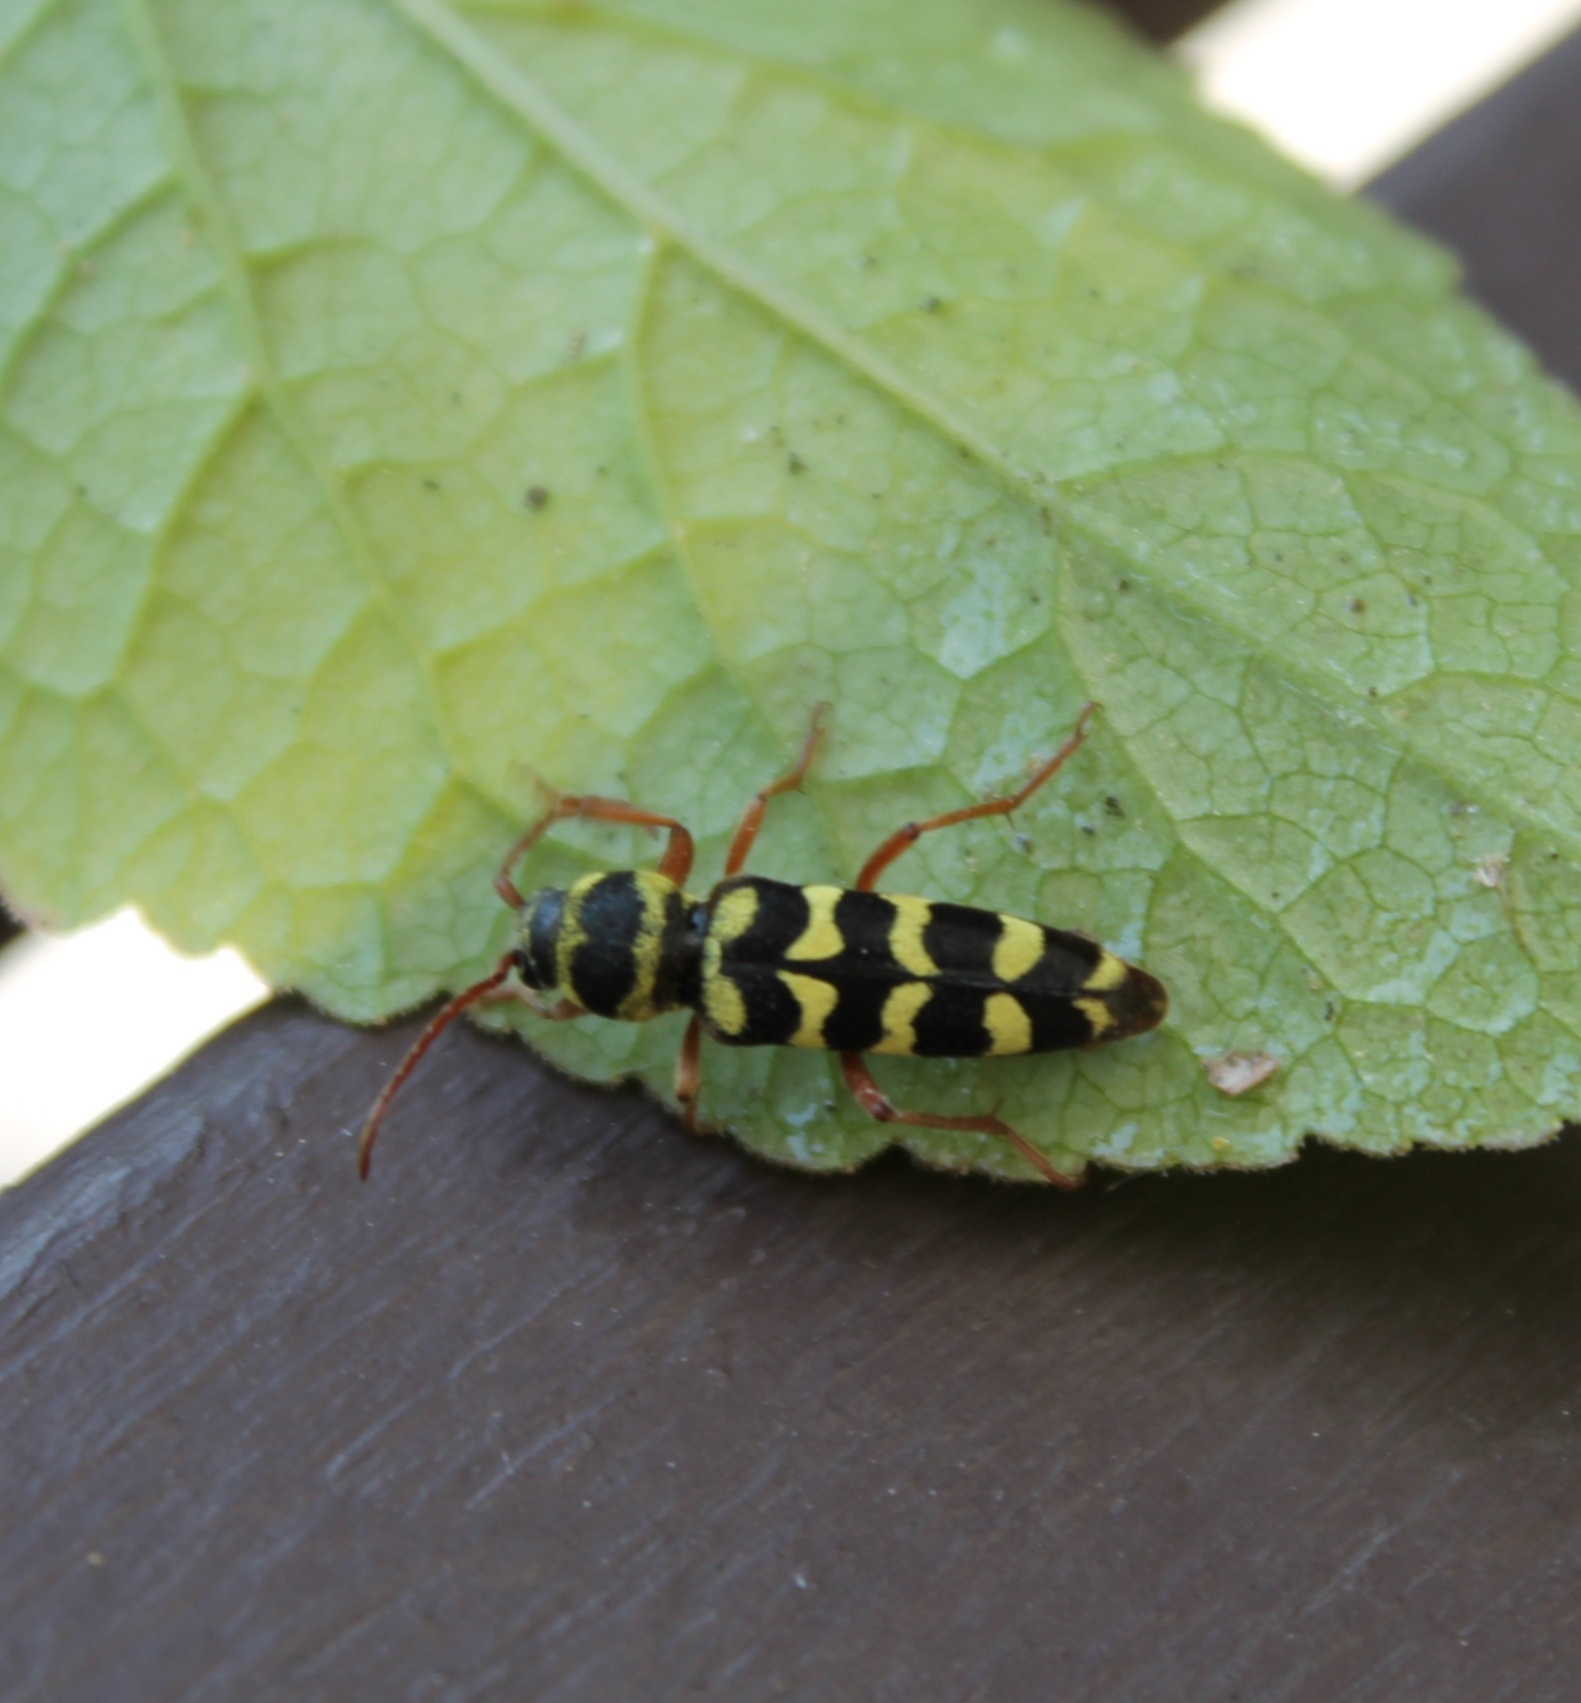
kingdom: Animalia
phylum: Arthropoda
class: Insecta
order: Coleoptera
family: Cerambycidae
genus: Plagionotus
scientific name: Plagionotus floralis
